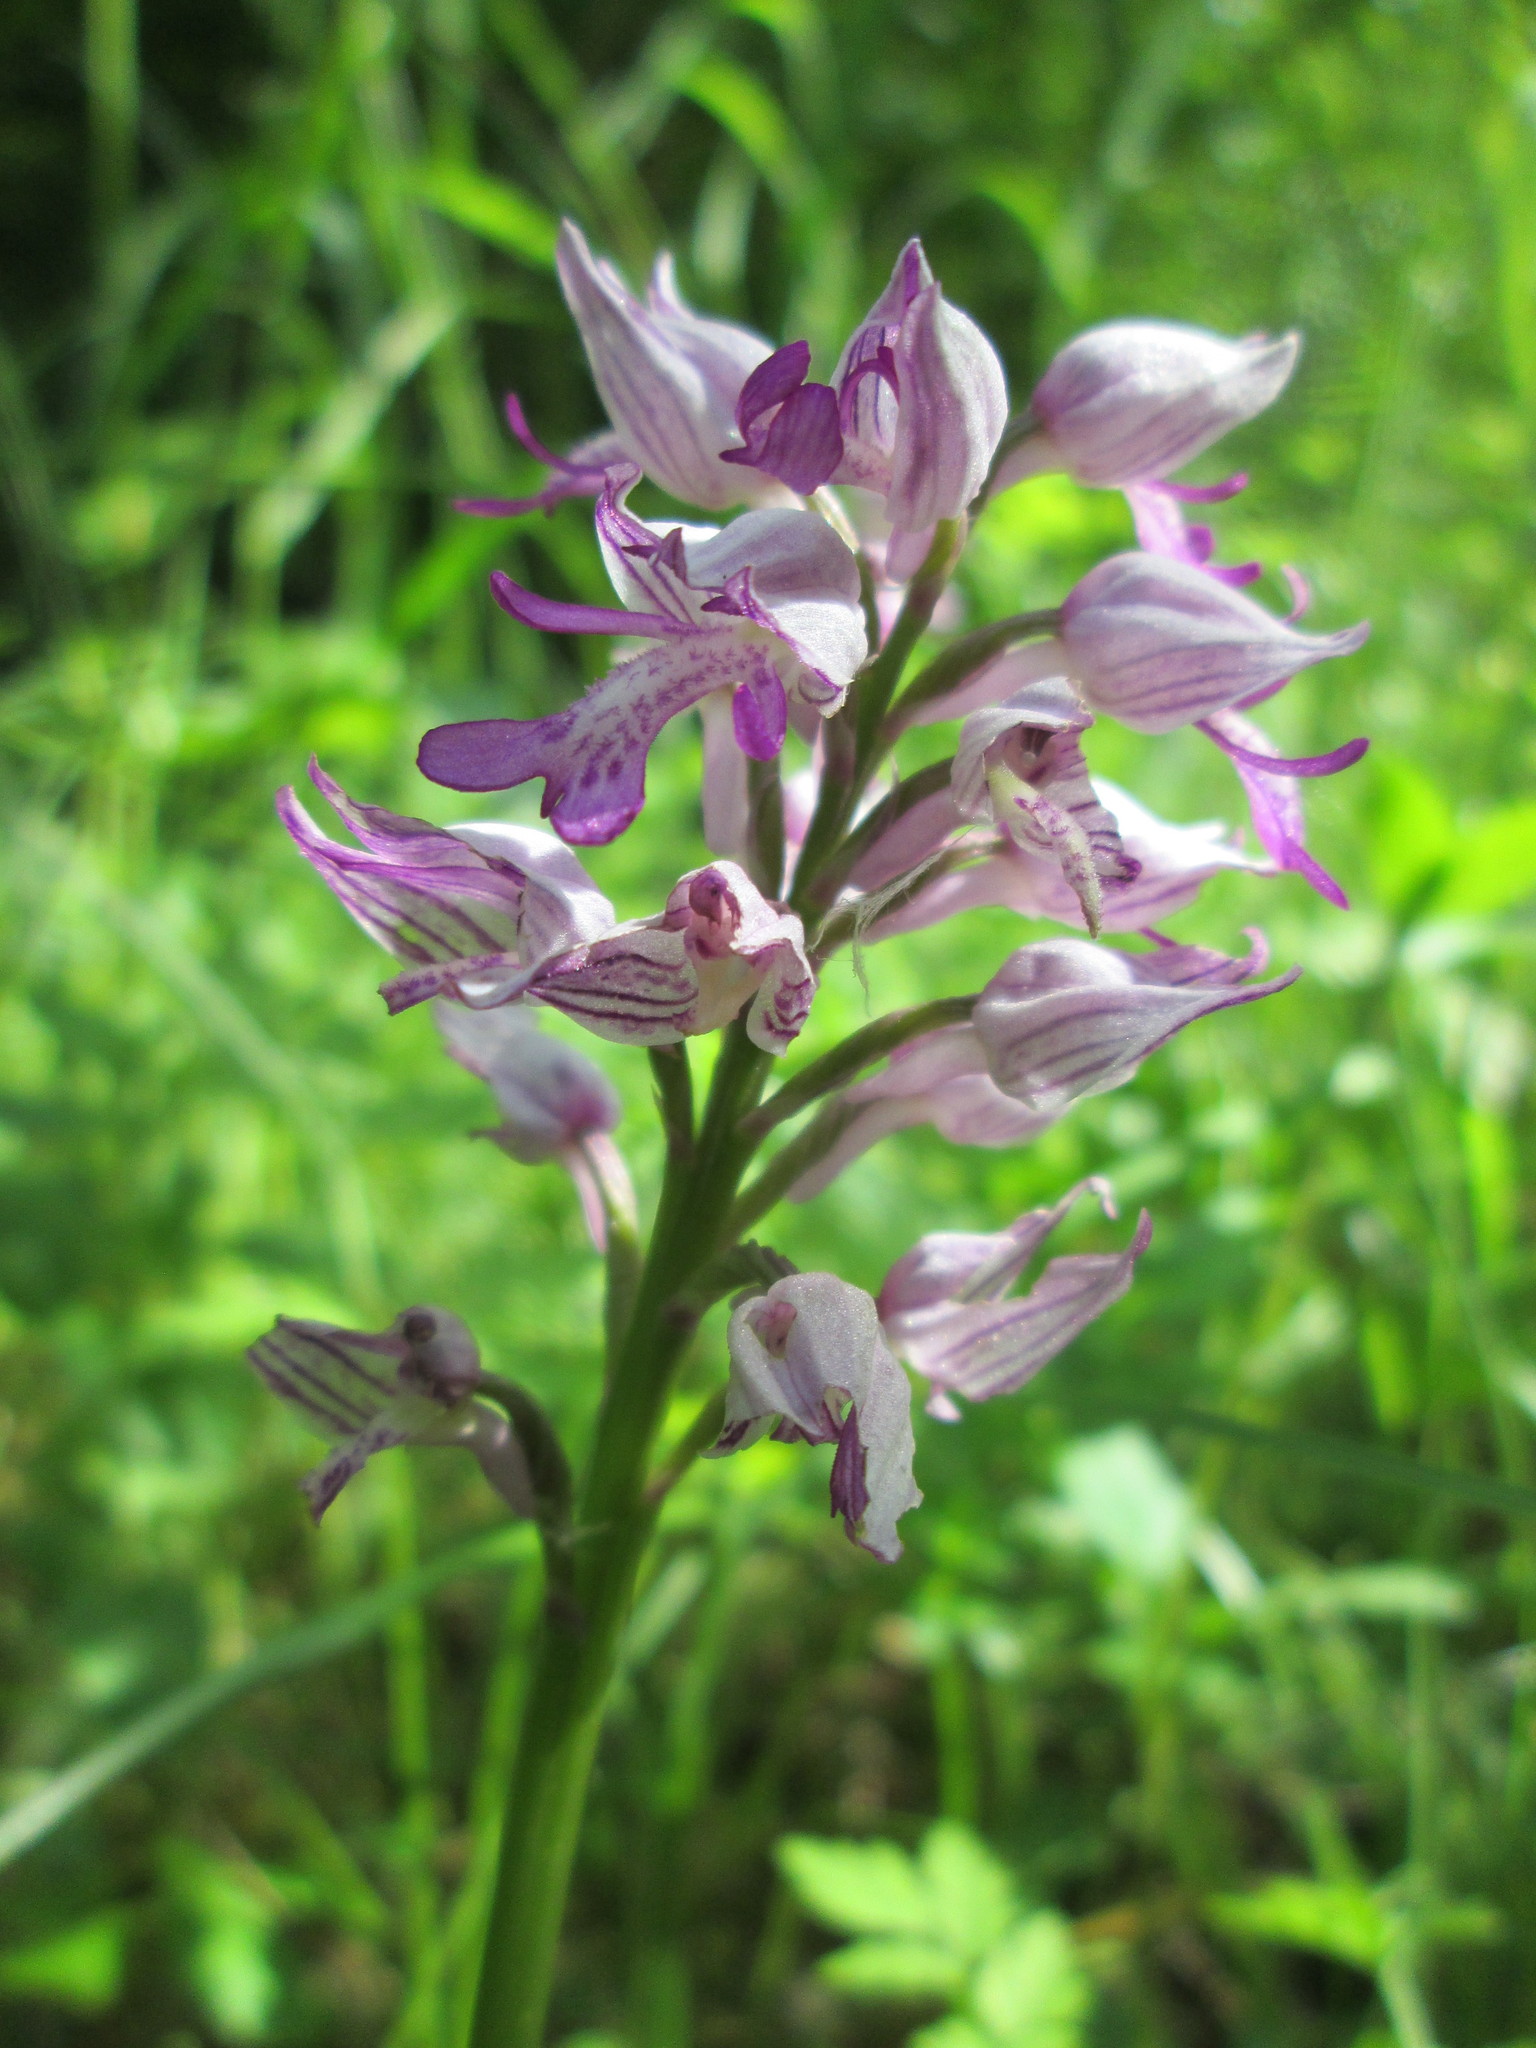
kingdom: Plantae
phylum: Tracheophyta
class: Liliopsida
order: Asparagales
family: Orchidaceae
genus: Orchis
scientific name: Orchis militaris
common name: Military orchid
